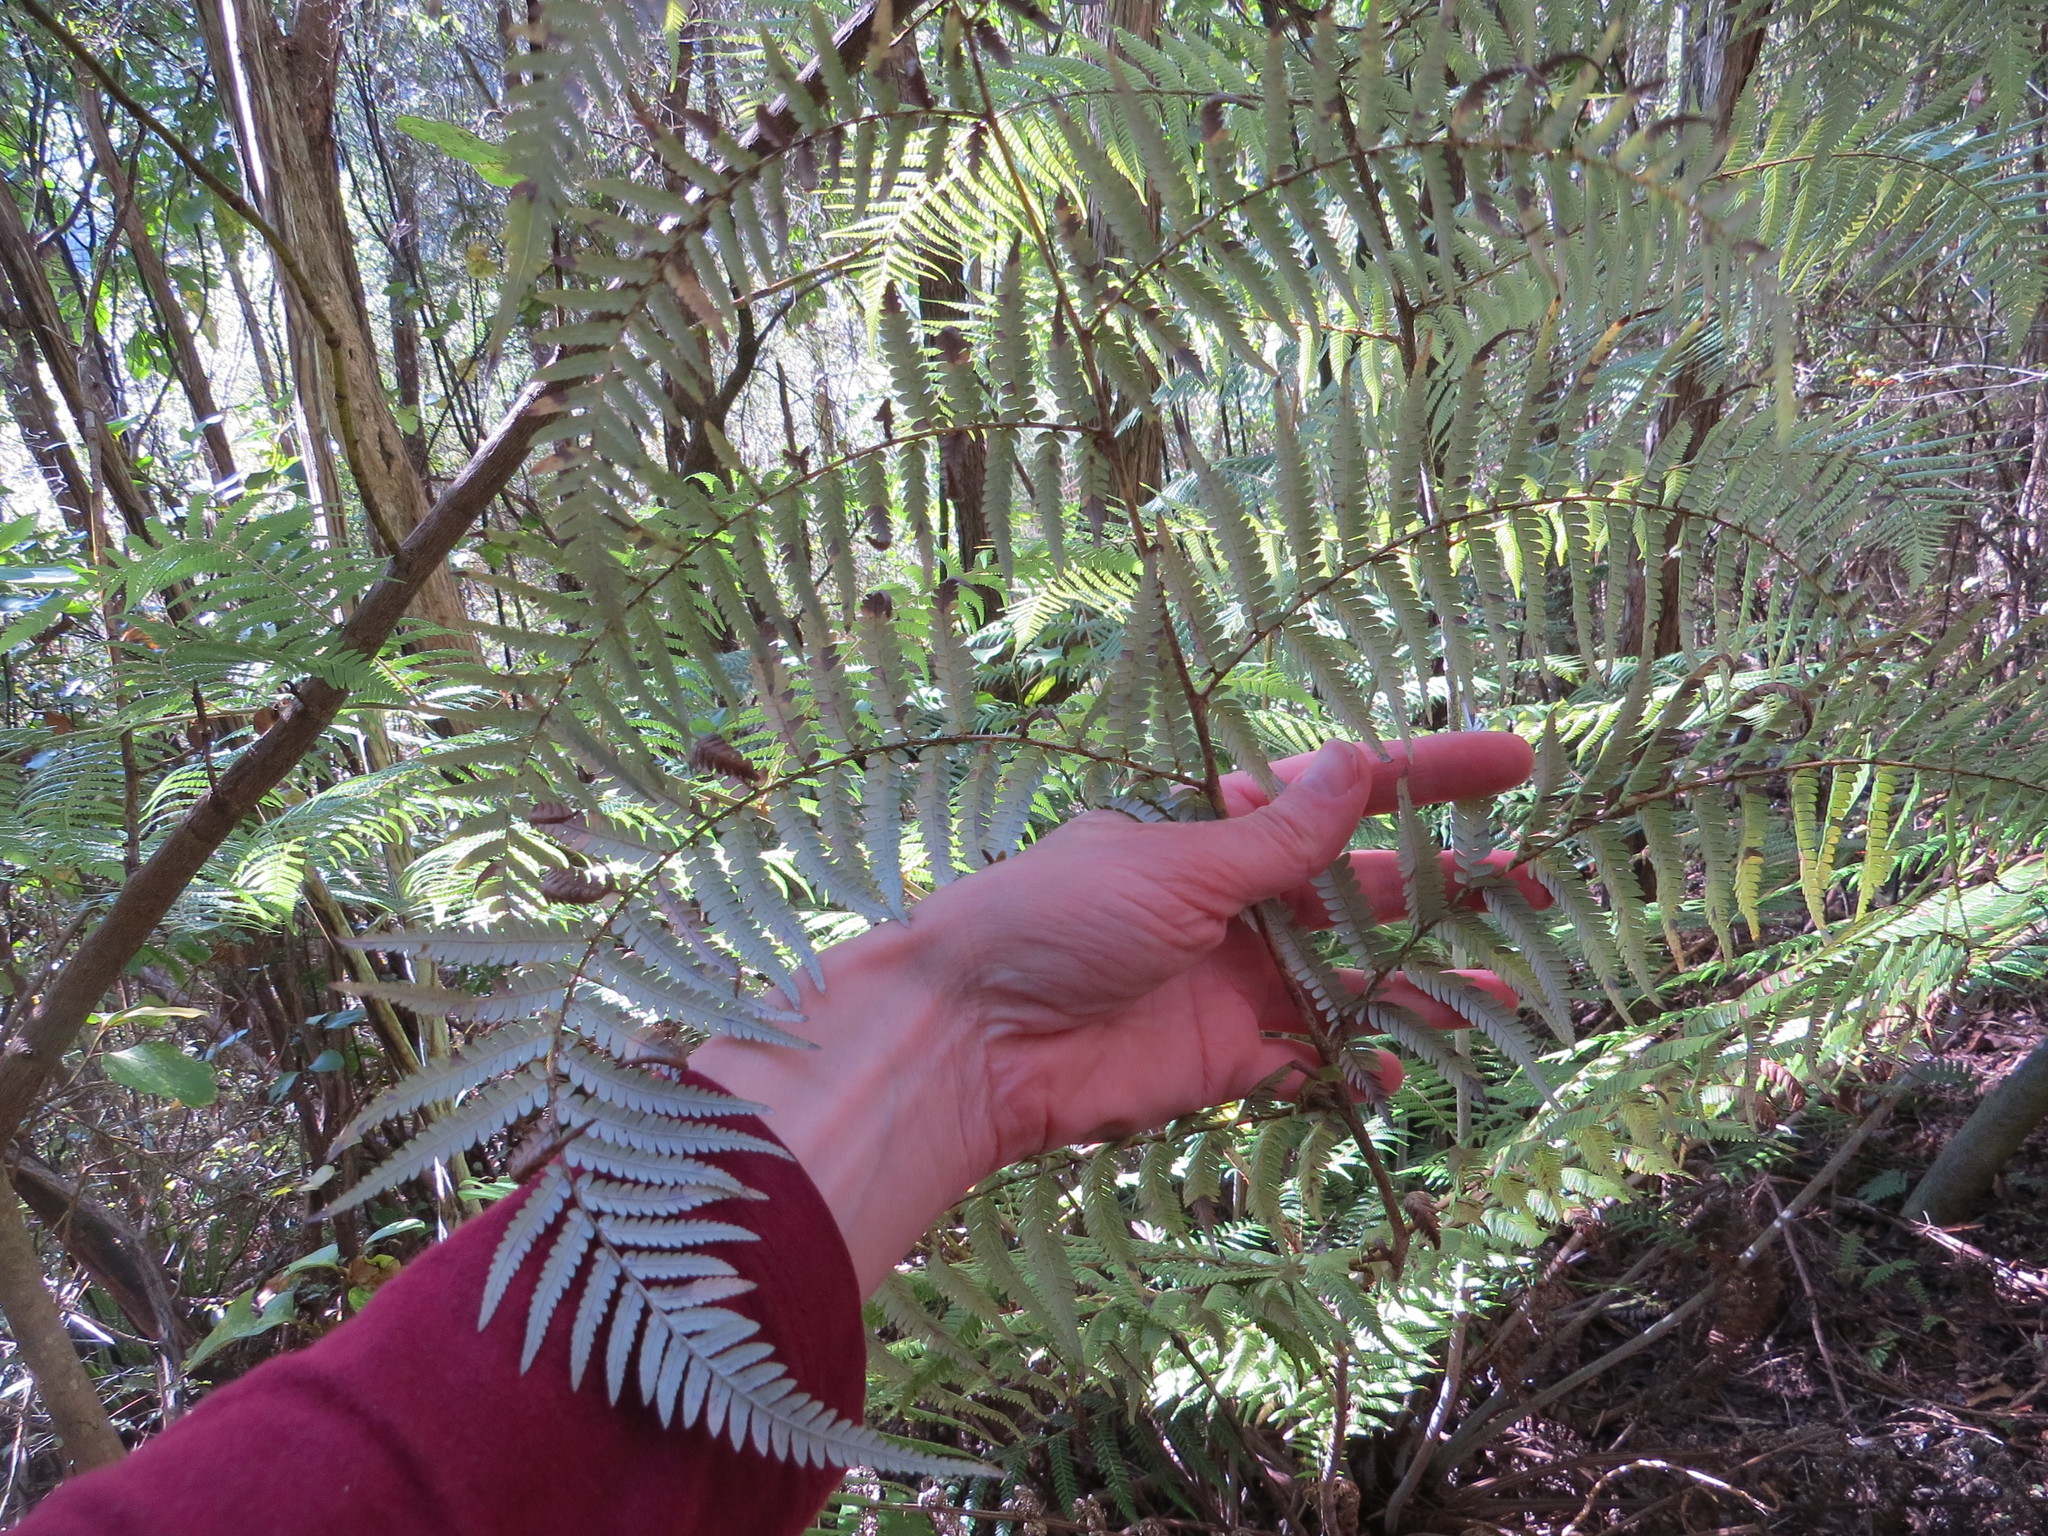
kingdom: Plantae
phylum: Tracheophyta
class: Polypodiopsida
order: Cyatheales
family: Cyatheaceae
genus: Alsophila
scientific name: Alsophila dealbata
